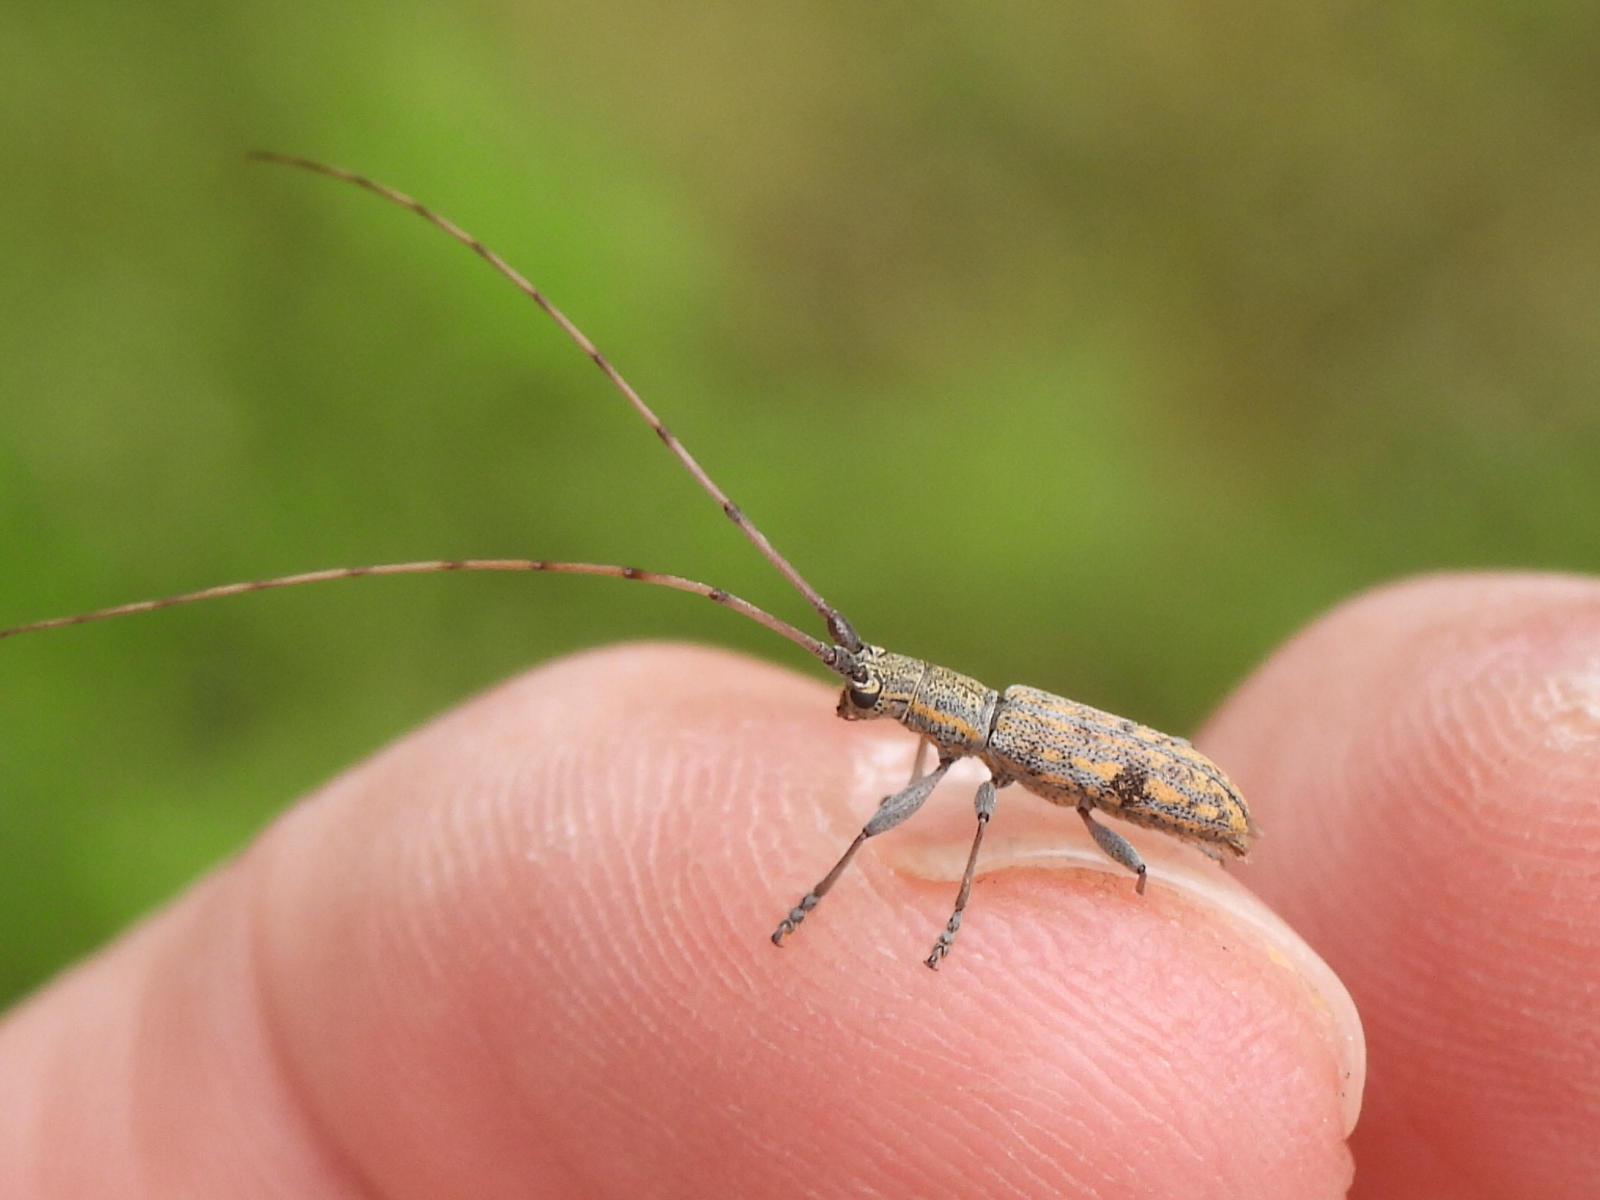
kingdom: Animalia
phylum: Arthropoda
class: Insecta
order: Coleoptera
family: Cerambycidae
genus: Dorcaschema
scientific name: Dorcaschema alternatum
